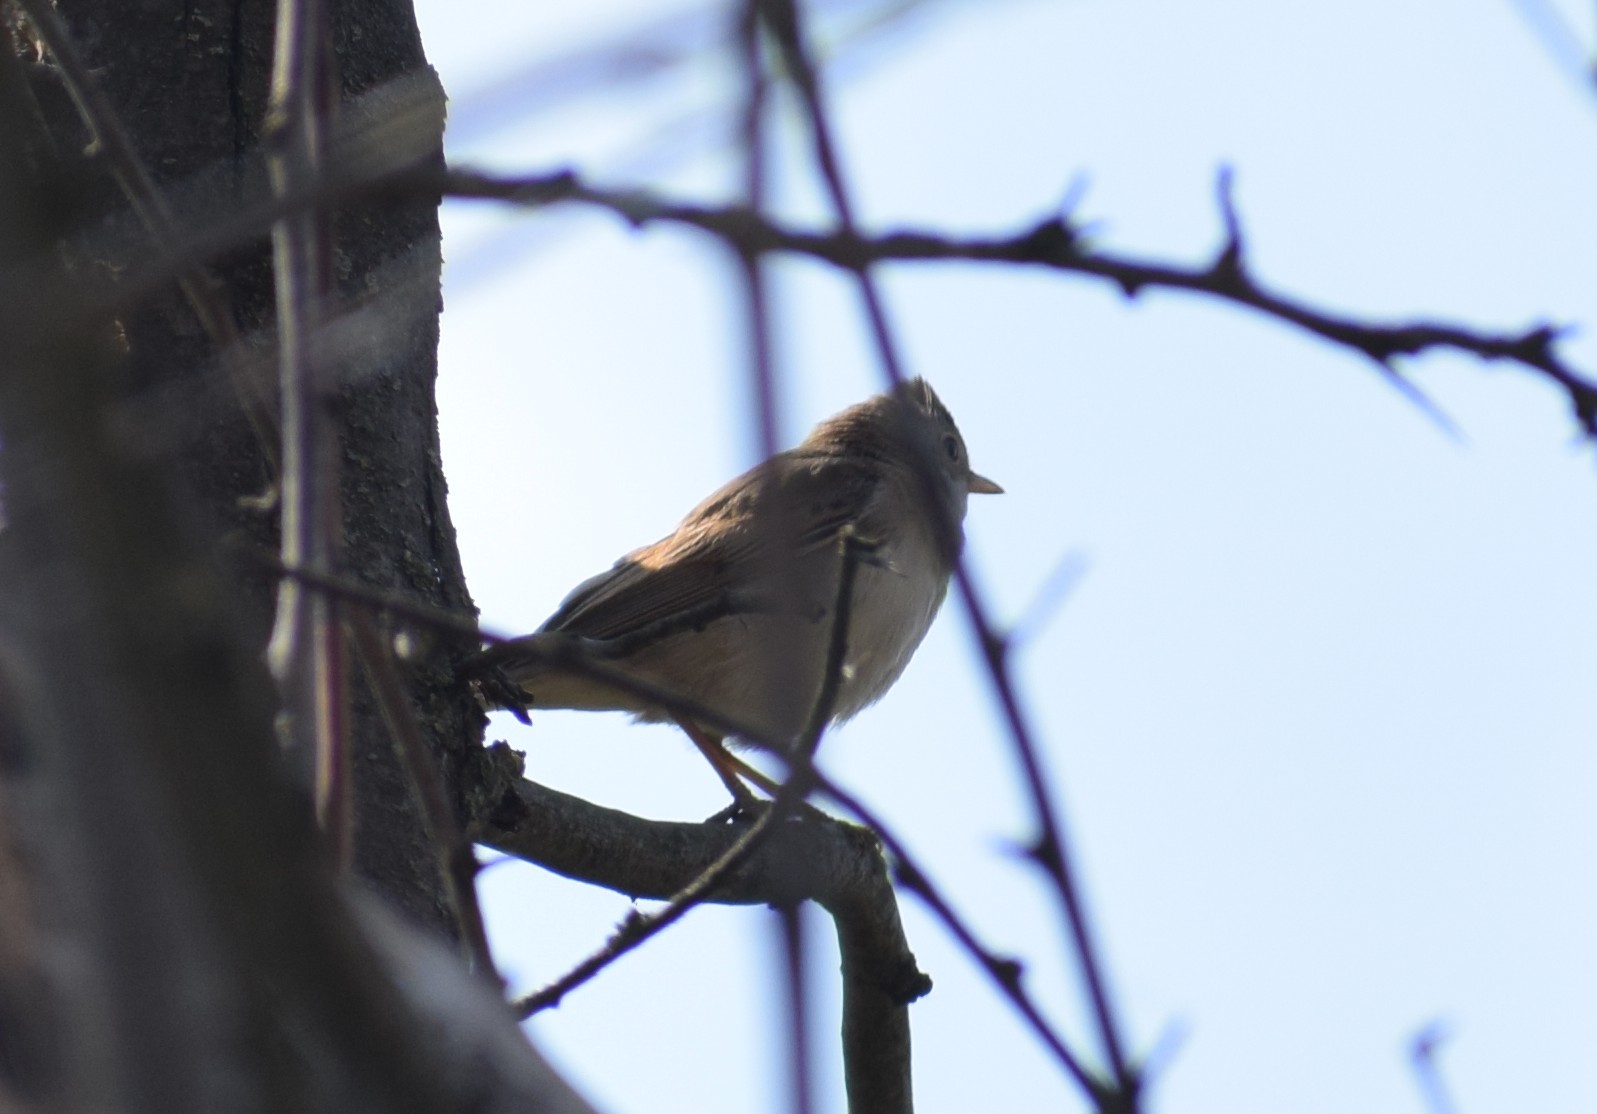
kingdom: Animalia
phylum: Chordata
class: Aves
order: Passeriformes
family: Sylviidae
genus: Sylvia
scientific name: Sylvia communis
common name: Common whitethroat
